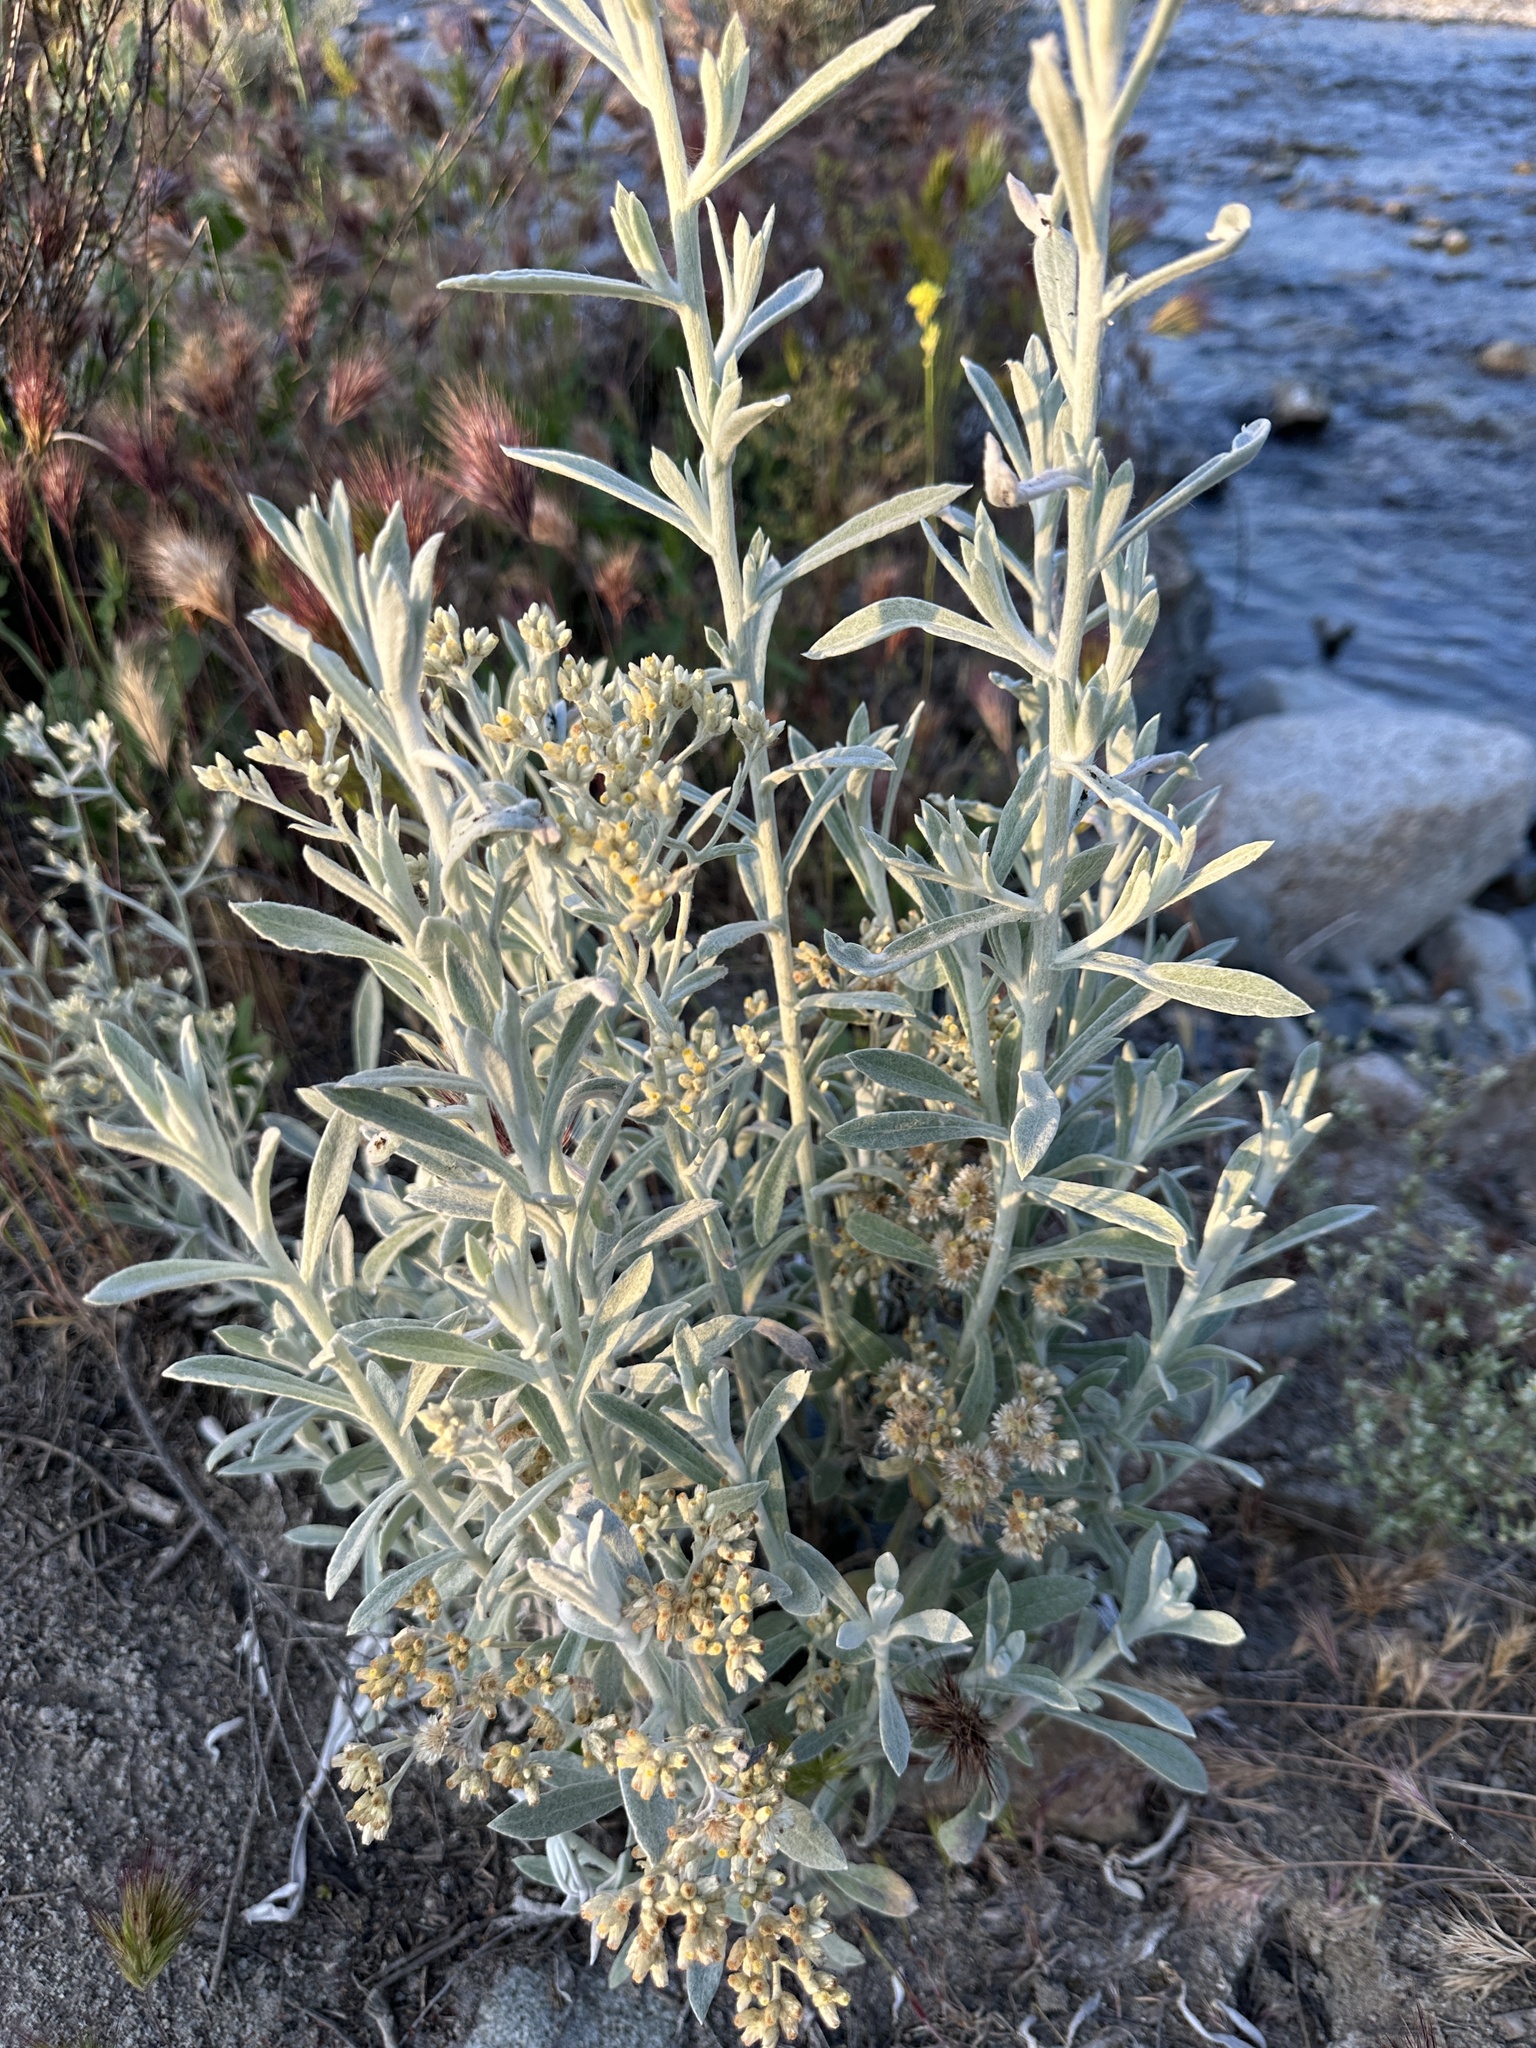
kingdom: Plantae
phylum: Tracheophyta
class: Magnoliopsida
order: Asterales
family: Asteraceae
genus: Pseudognaphalium
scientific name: Pseudognaphalium microcephalum
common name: San diego rabbit-tobacco
